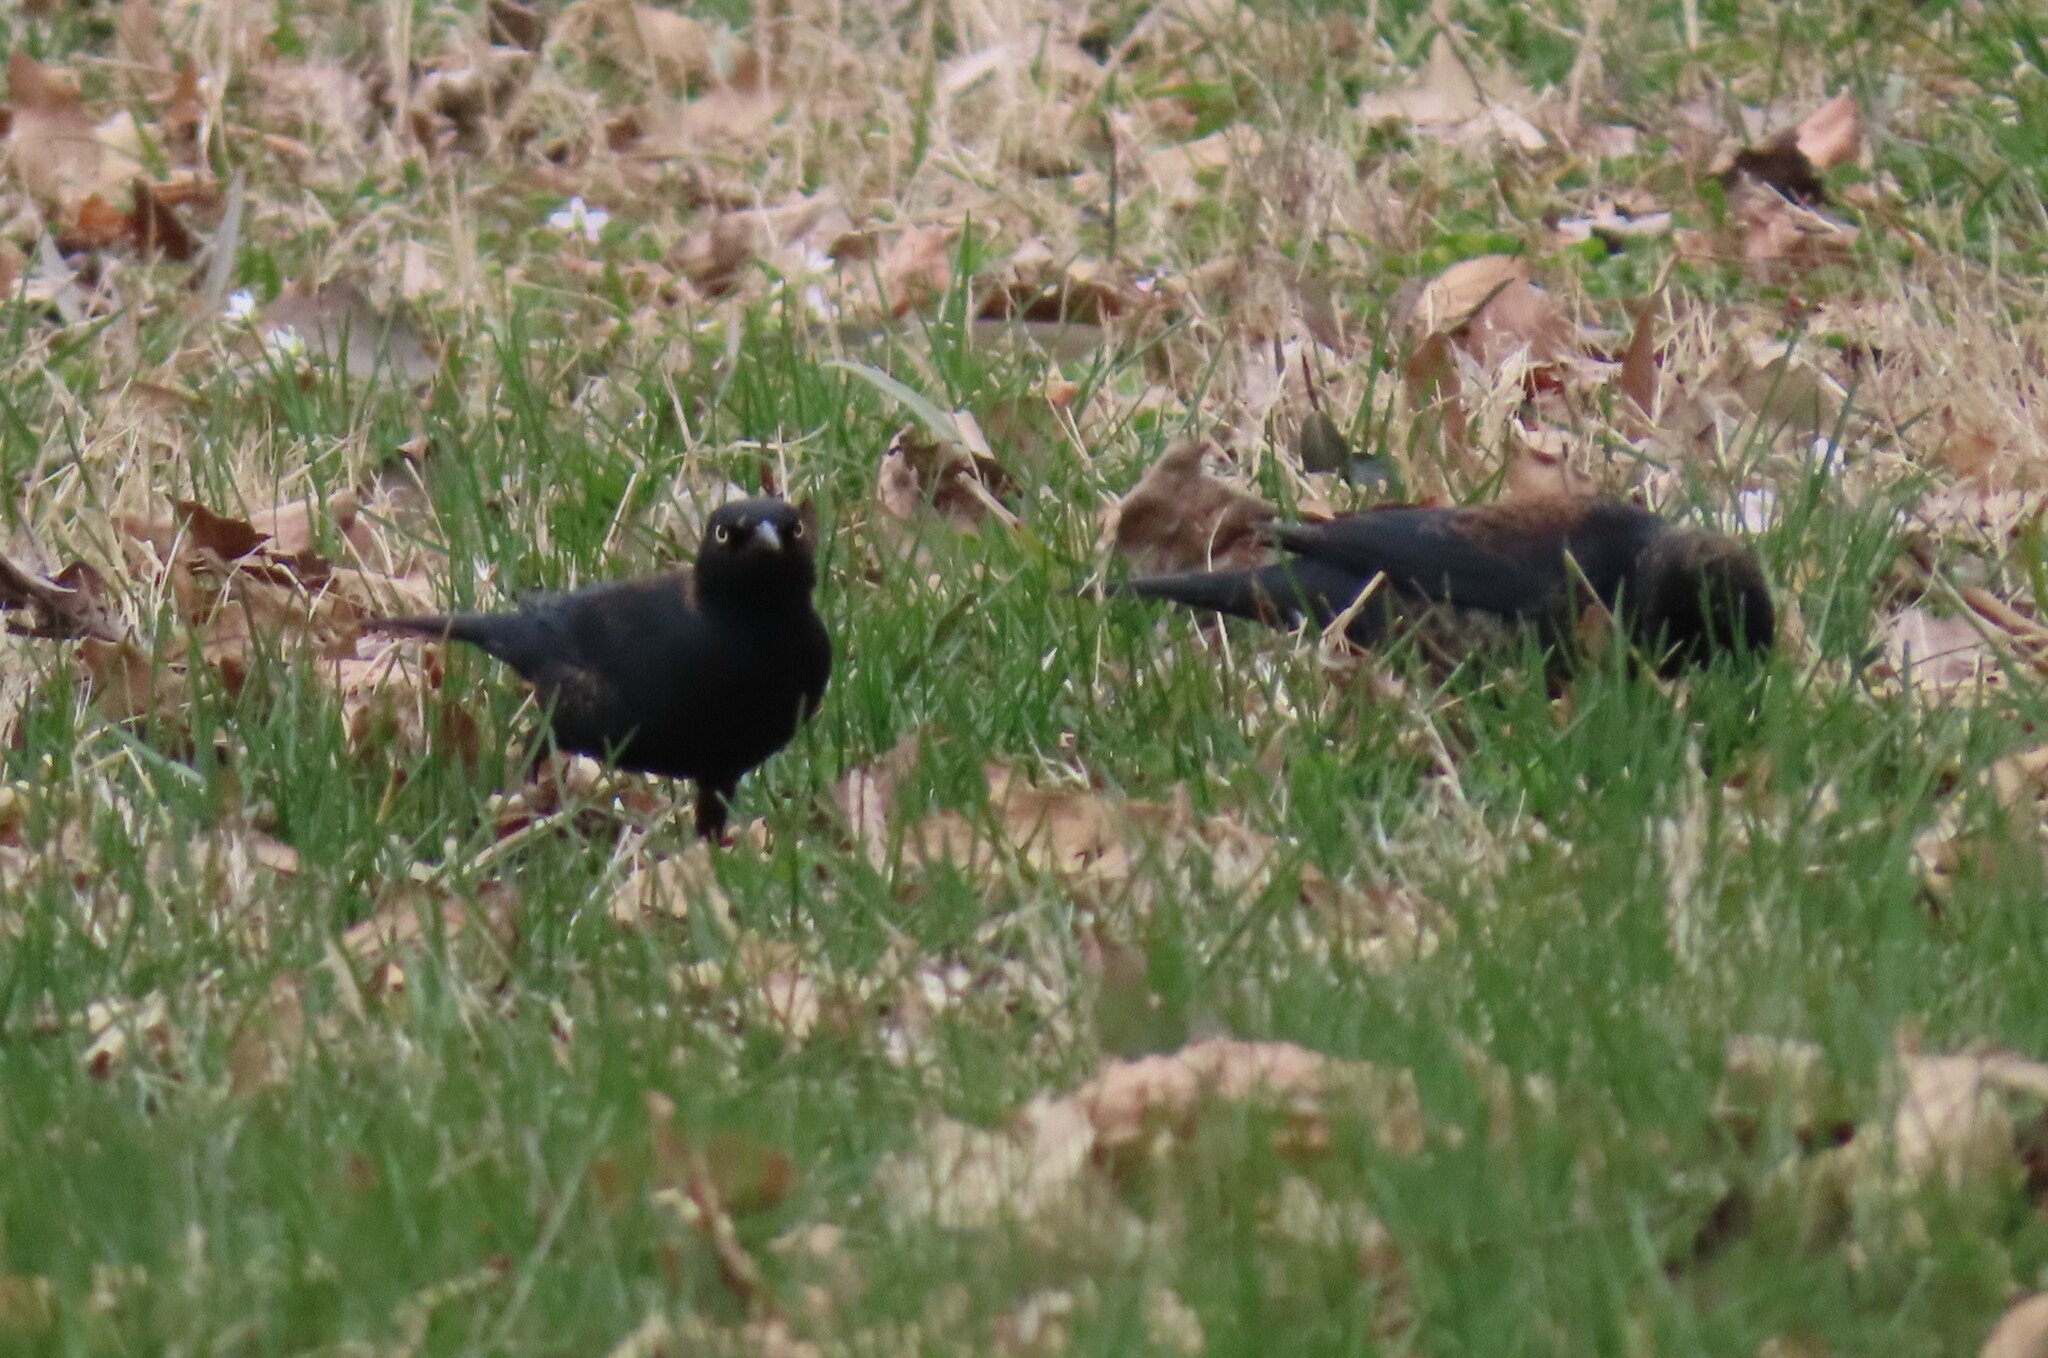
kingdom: Animalia
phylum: Chordata
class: Aves
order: Passeriformes
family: Icteridae
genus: Euphagus
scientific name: Euphagus carolinus
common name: Rusty blackbird
